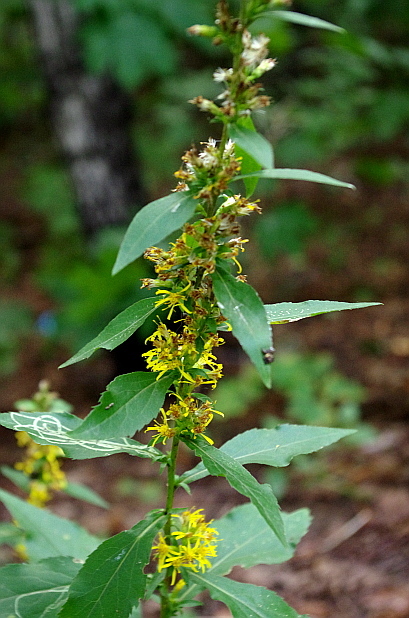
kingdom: Plantae
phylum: Tracheophyta
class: Magnoliopsida
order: Asterales
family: Asteraceae
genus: Solidago
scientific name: Solidago virgaurea
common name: Goldenrod
